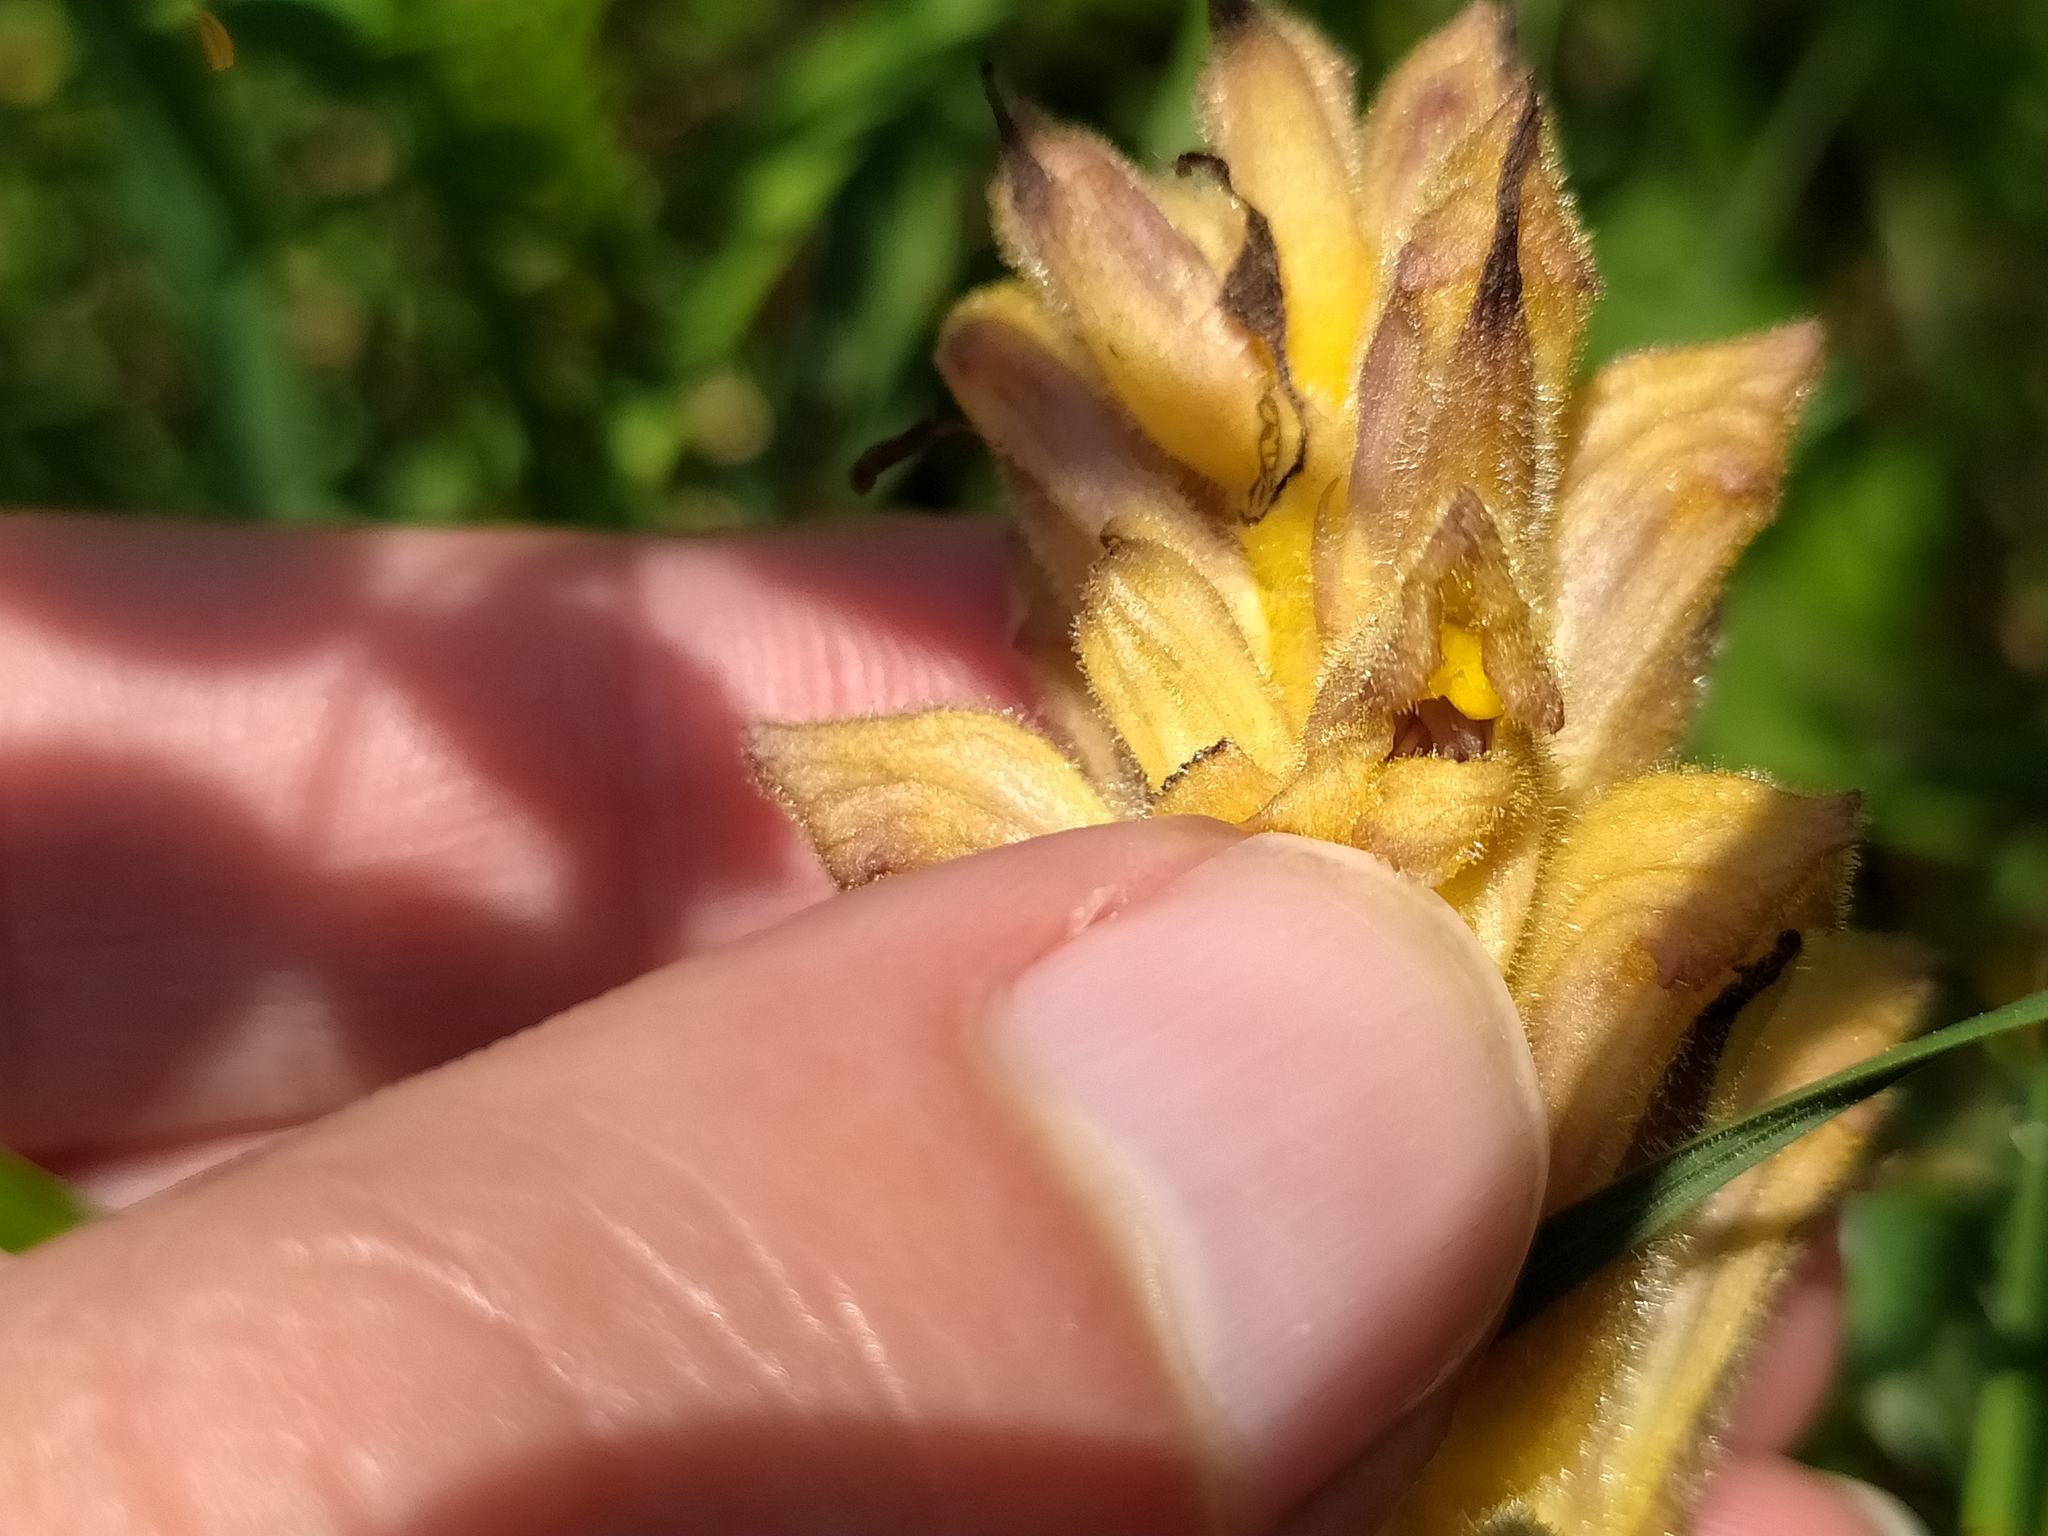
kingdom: Plantae
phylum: Tracheophyta
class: Magnoliopsida
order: Lamiales
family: Orobanchaceae
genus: Orobanche
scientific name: Orobanche lutea
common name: Yellow broomrape
